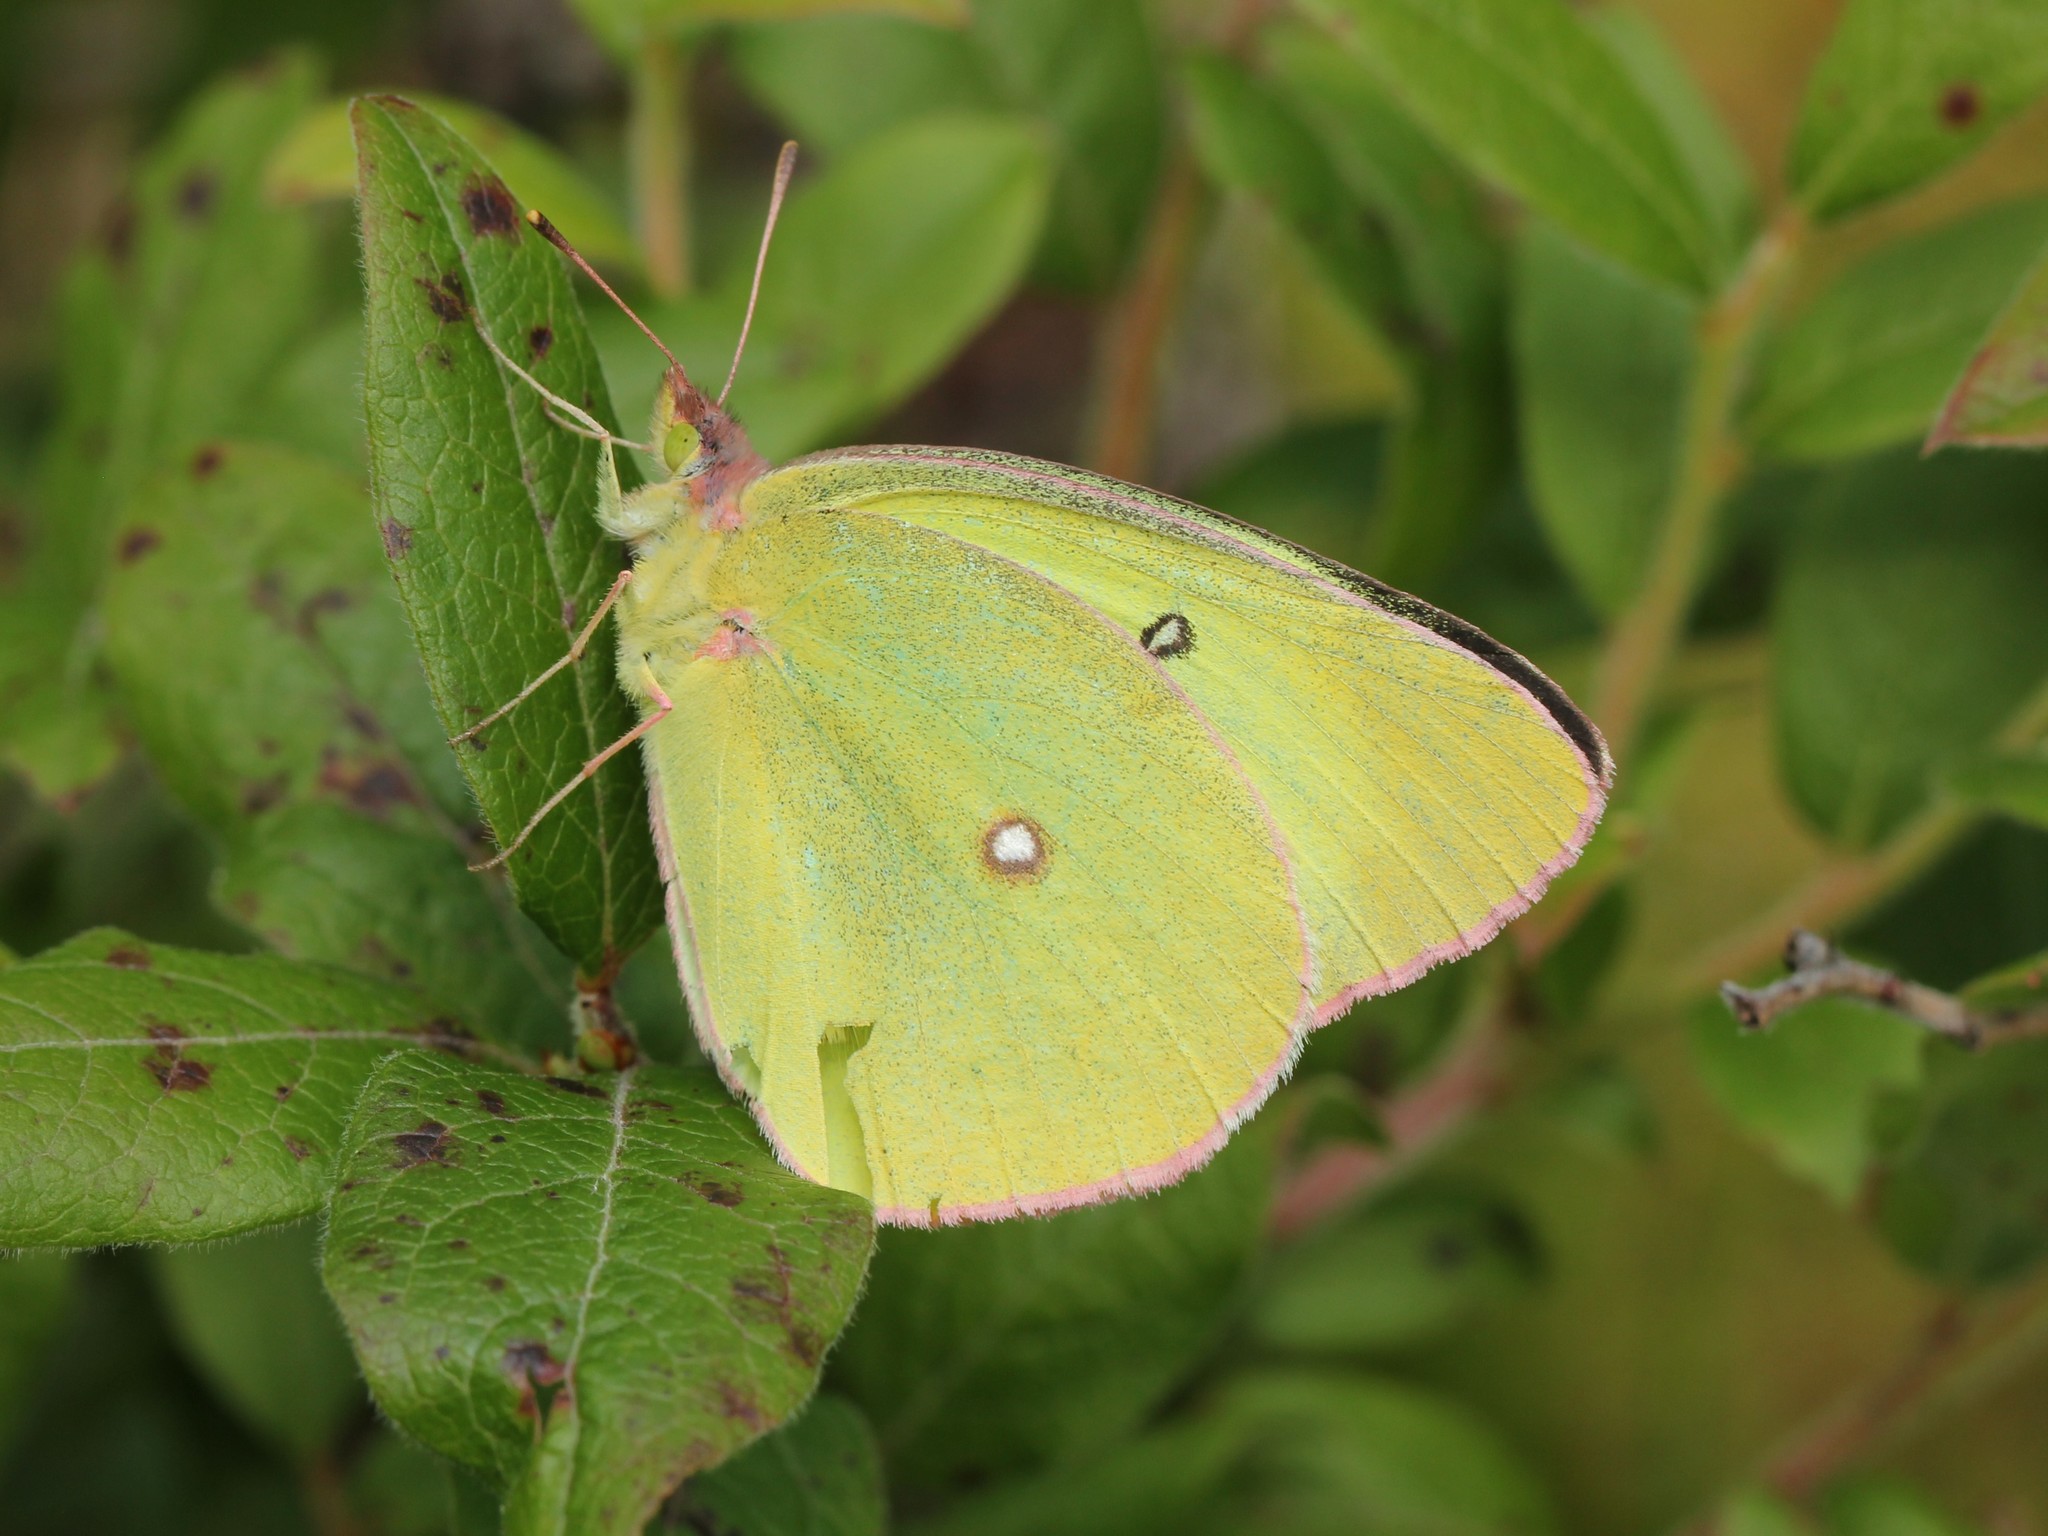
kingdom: Animalia
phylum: Arthropoda
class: Insecta
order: Lepidoptera
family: Pieridae
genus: Colias
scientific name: Colias interior
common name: Pink-edged sulphur
